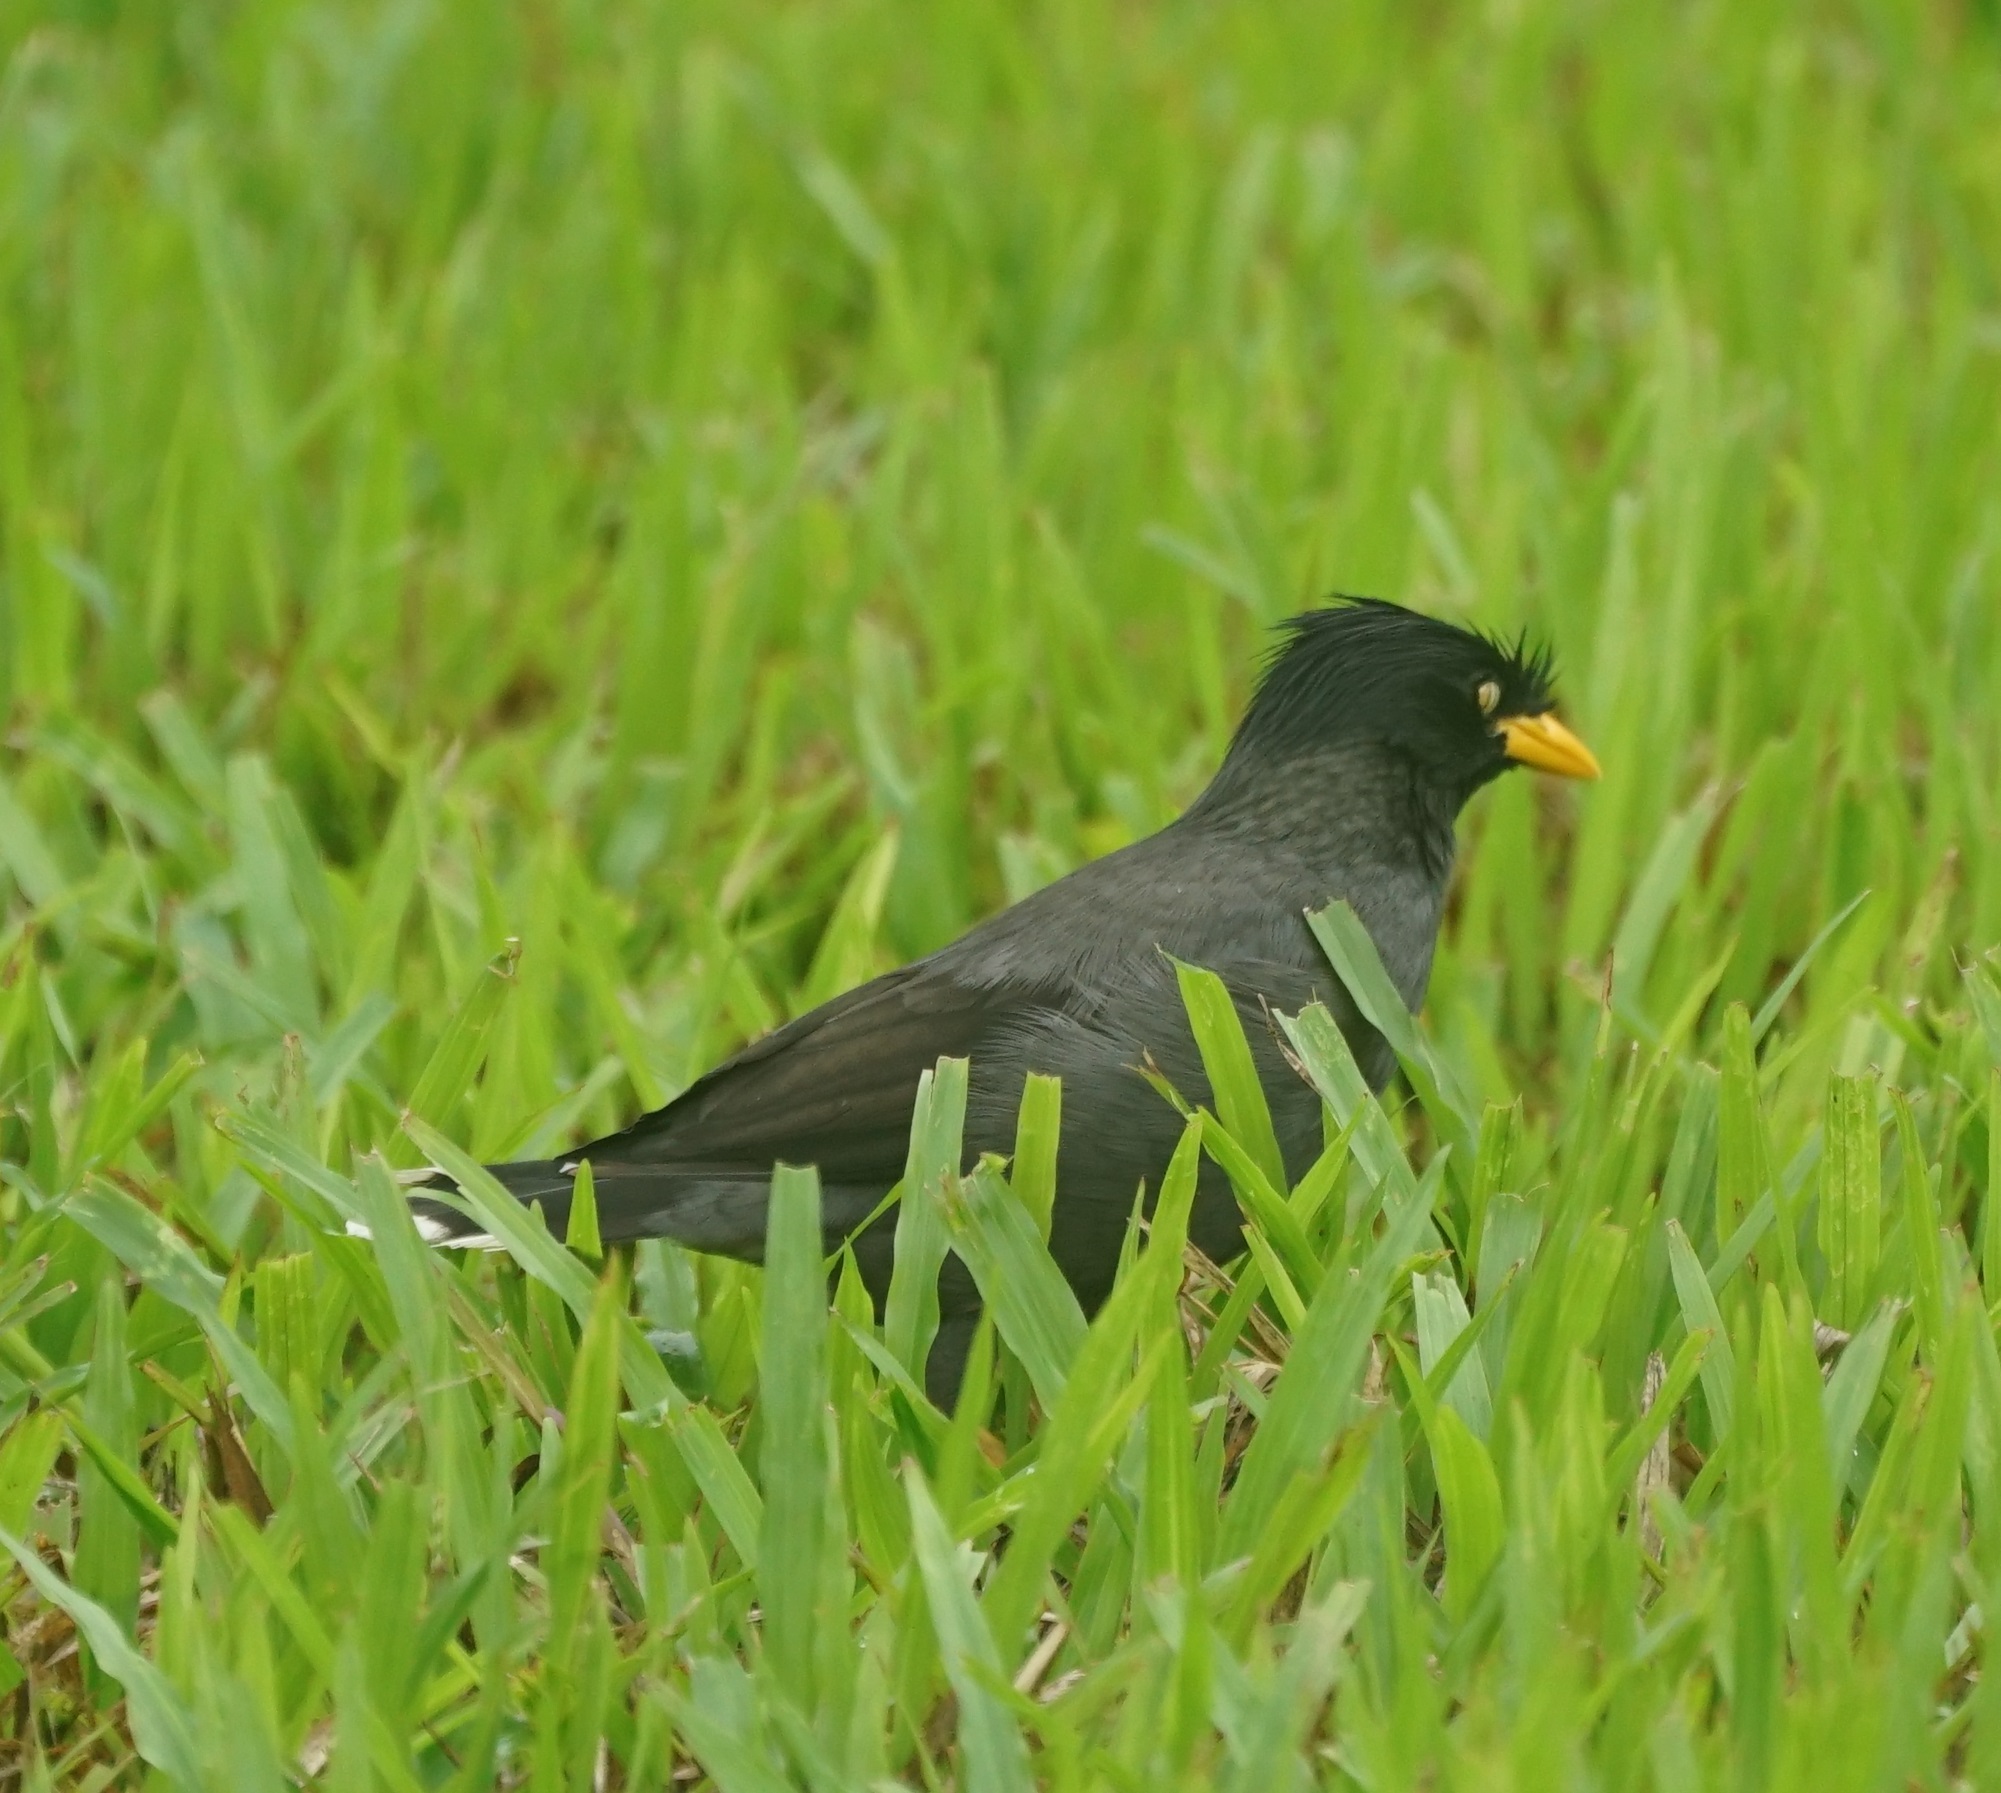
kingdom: Animalia
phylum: Chordata
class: Aves
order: Passeriformes
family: Sturnidae
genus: Acridotheres
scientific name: Acridotheres javanicus
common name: Javan myna
